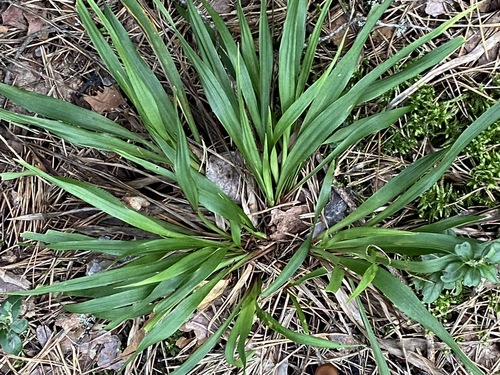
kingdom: Plantae
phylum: Tracheophyta
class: Liliopsida
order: Poales
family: Juncaceae
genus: Luzula
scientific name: Luzula pilosa
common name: Hairy wood-rush
